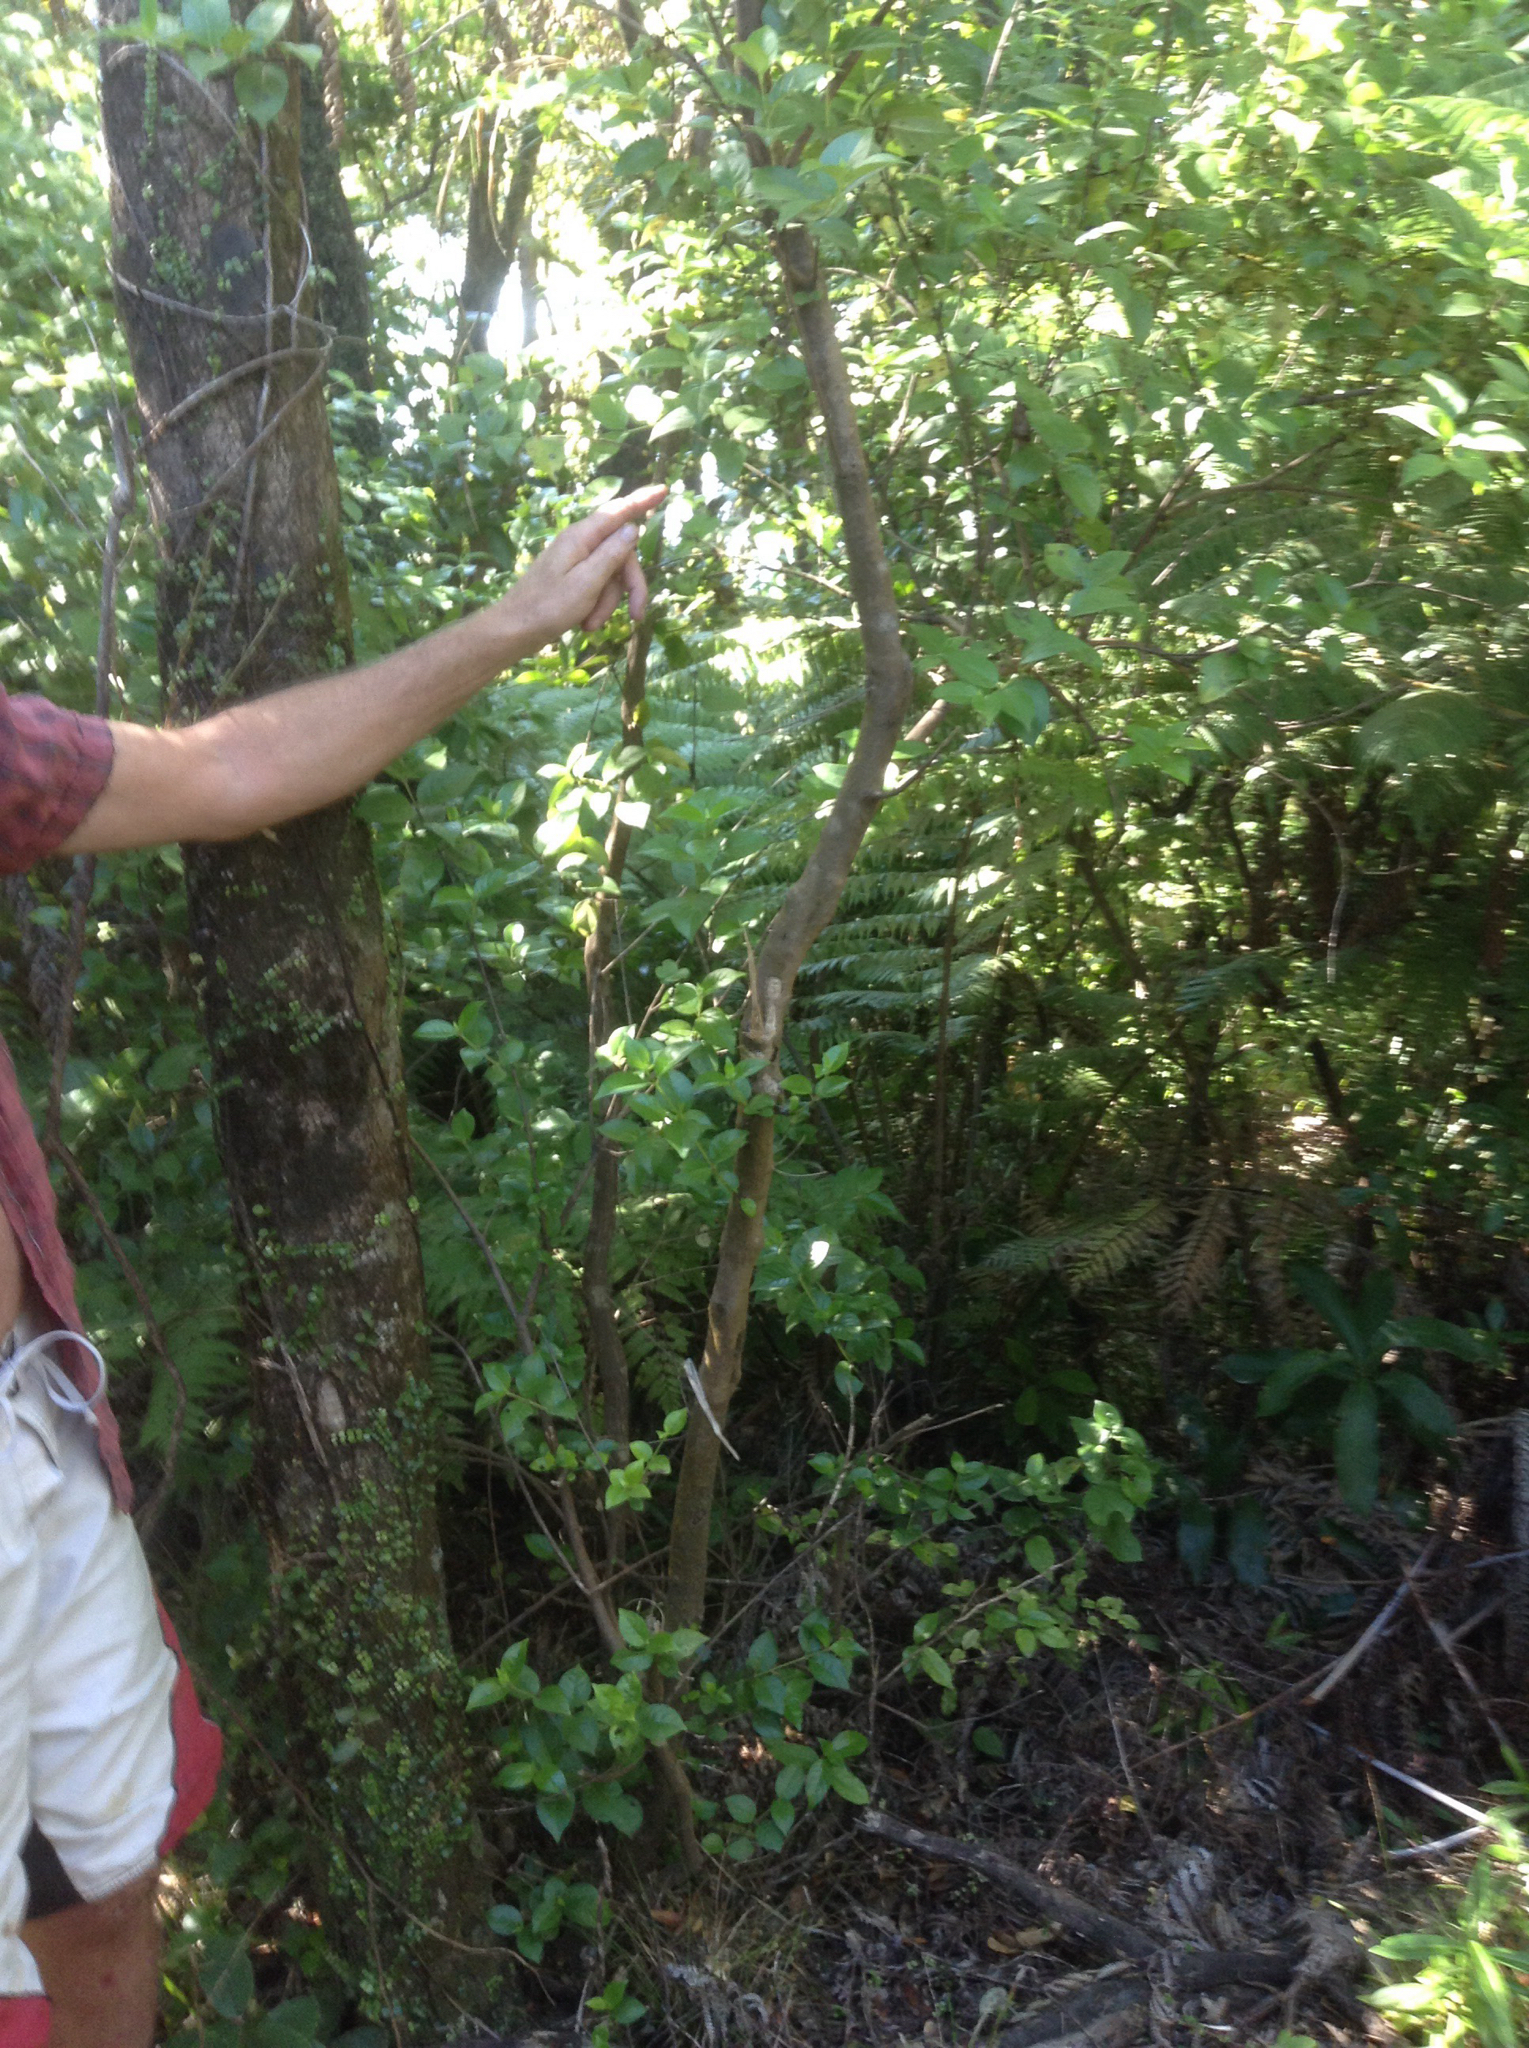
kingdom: Plantae
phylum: Tracheophyta
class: Magnoliopsida
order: Gentianales
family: Loganiaceae
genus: Geniostoma
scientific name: Geniostoma ligustrifolium
